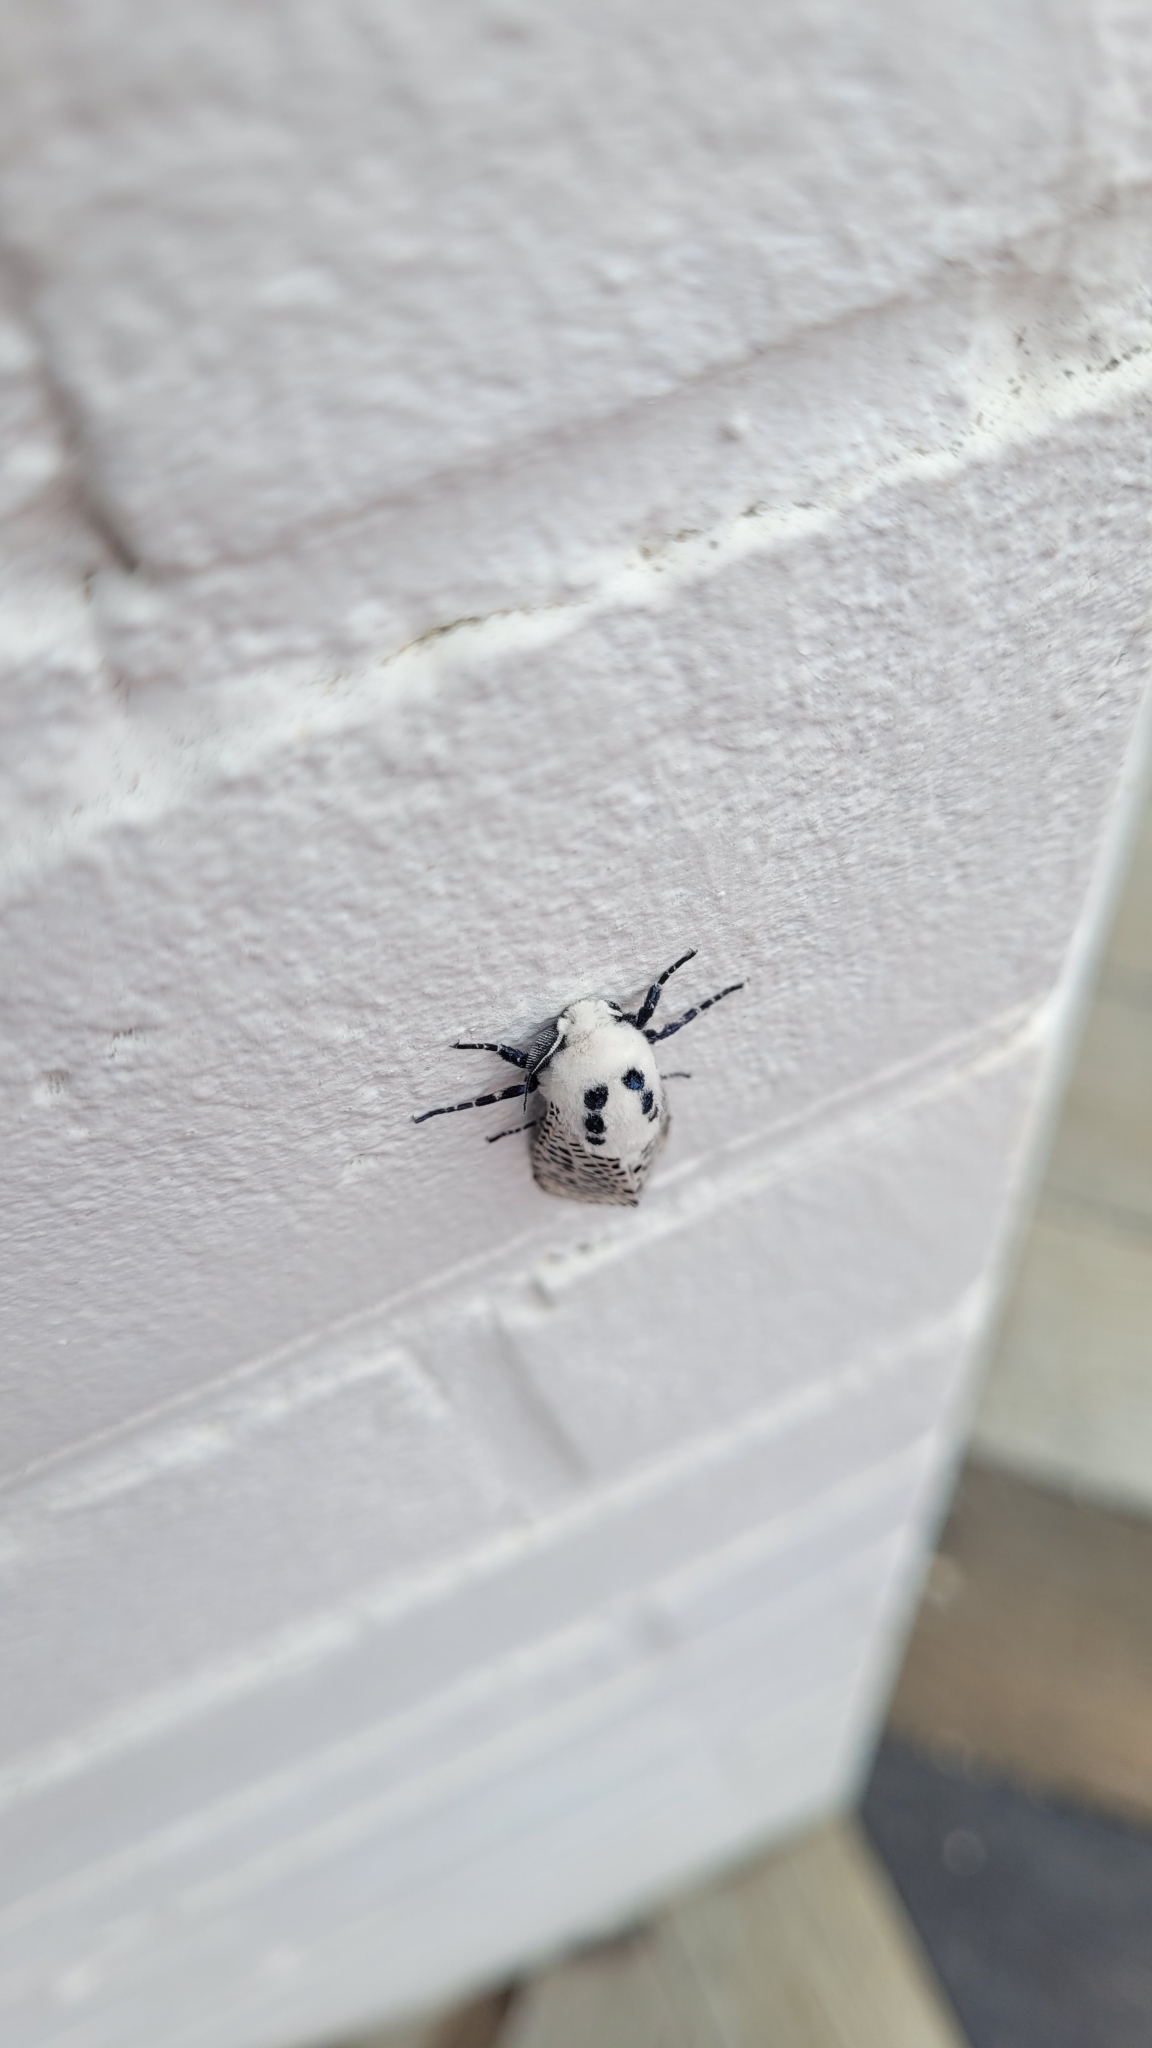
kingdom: Animalia
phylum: Arthropoda
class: Insecta
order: Lepidoptera
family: Cossidae
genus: Zeuzera
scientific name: Zeuzera pyrina
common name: Leopard moth
